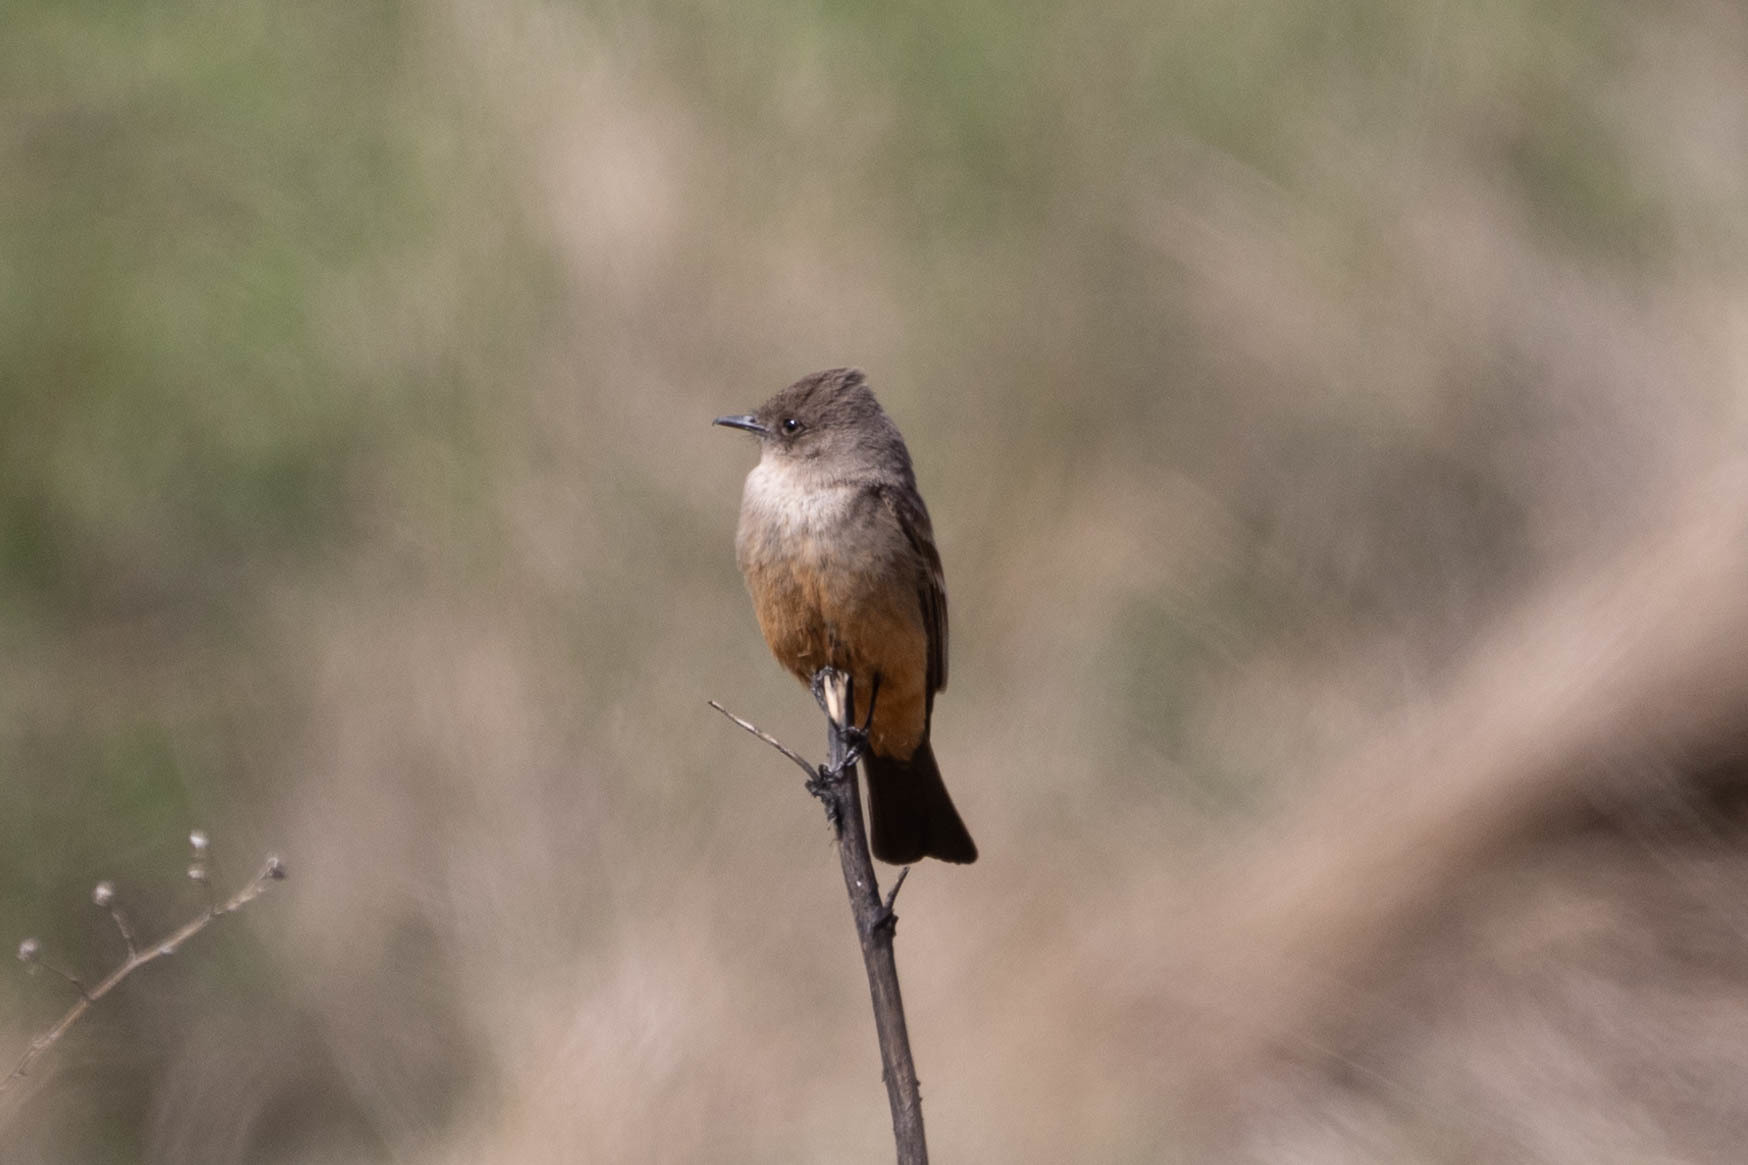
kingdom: Animalia
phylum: Chordata
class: Aves
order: Passeriformes
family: Tyrannidae
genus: Sayornis
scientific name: Sayornis saya
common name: Say's phoebe
